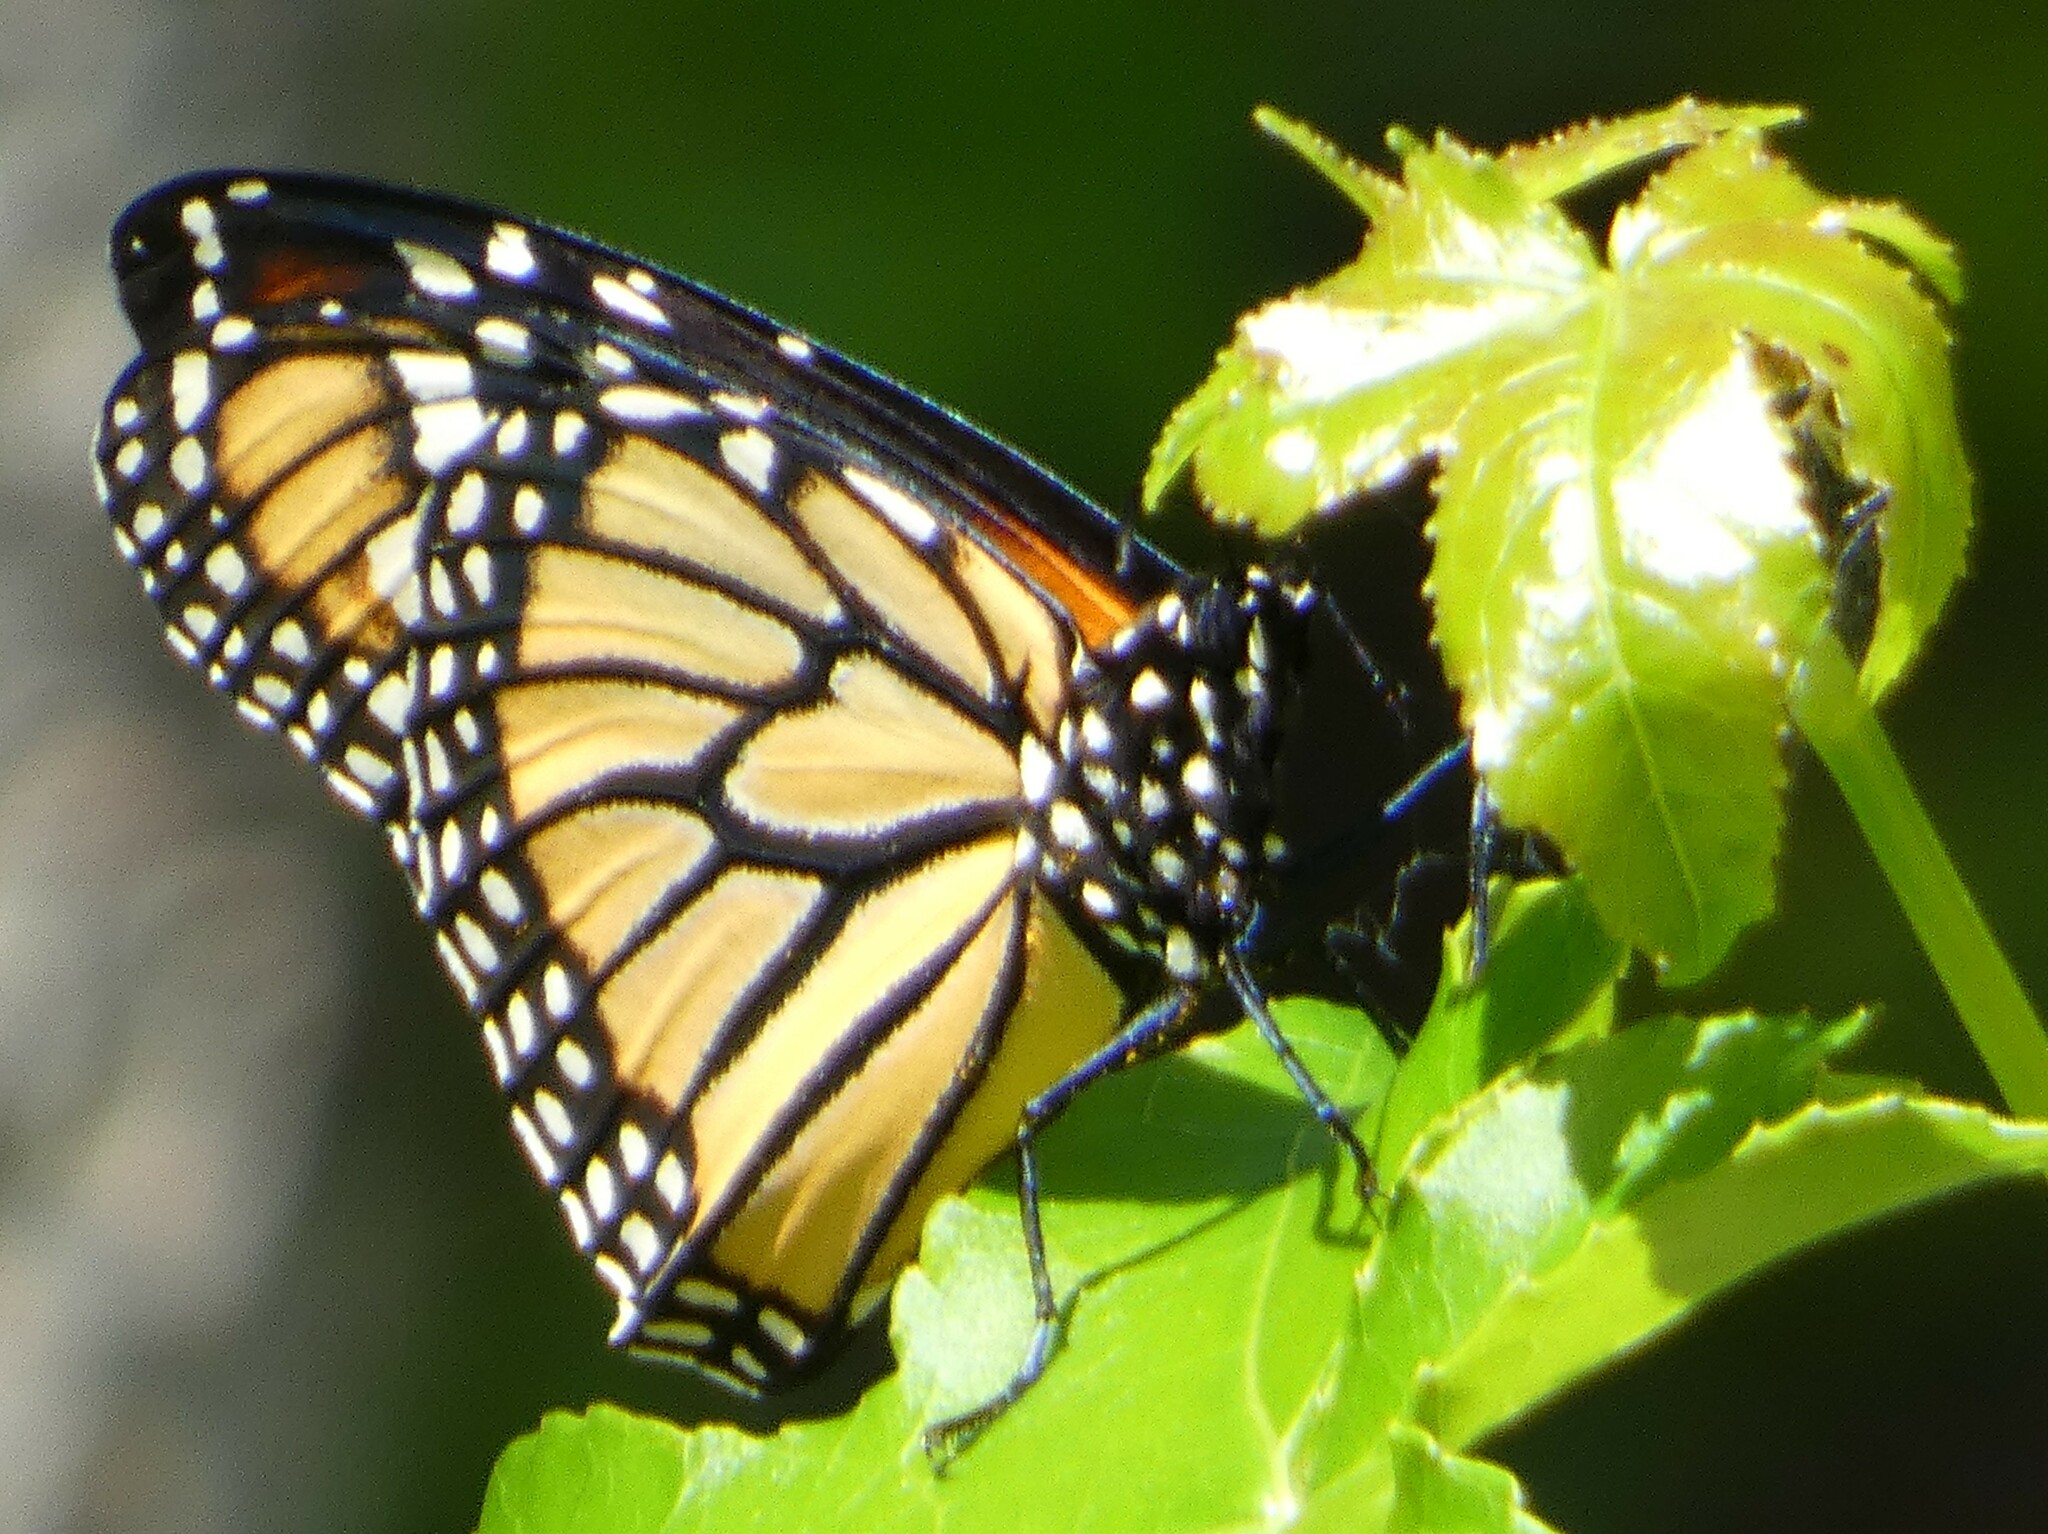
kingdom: Animalia
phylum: Arthropoda
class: Insecta
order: Lepidoptera
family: Nymphalidae
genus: Danaus
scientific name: Danaus plexippus
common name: Monarch
